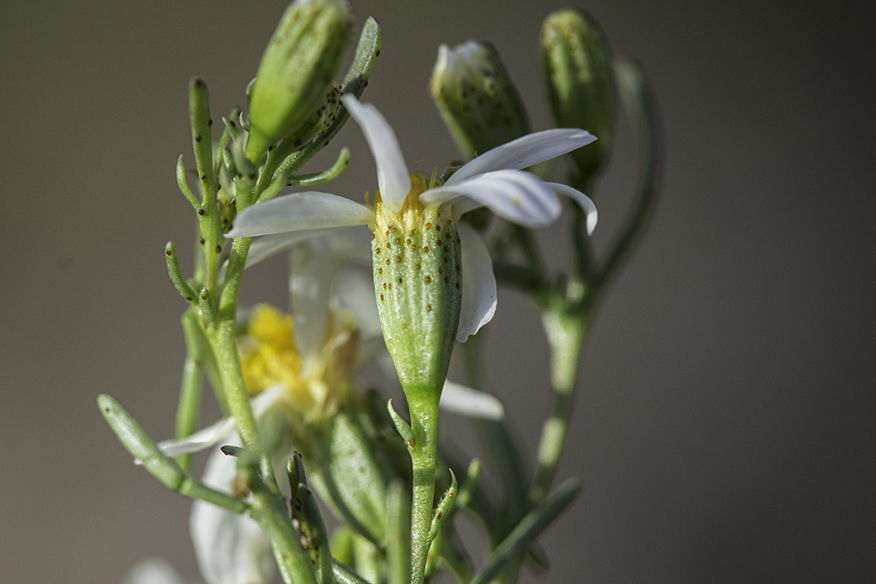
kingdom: Plantae
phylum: Tracheophyta
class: Magnoliopsida
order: Asterales
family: Asteraceae
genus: Thymophylla
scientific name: Thymophylla concinna
